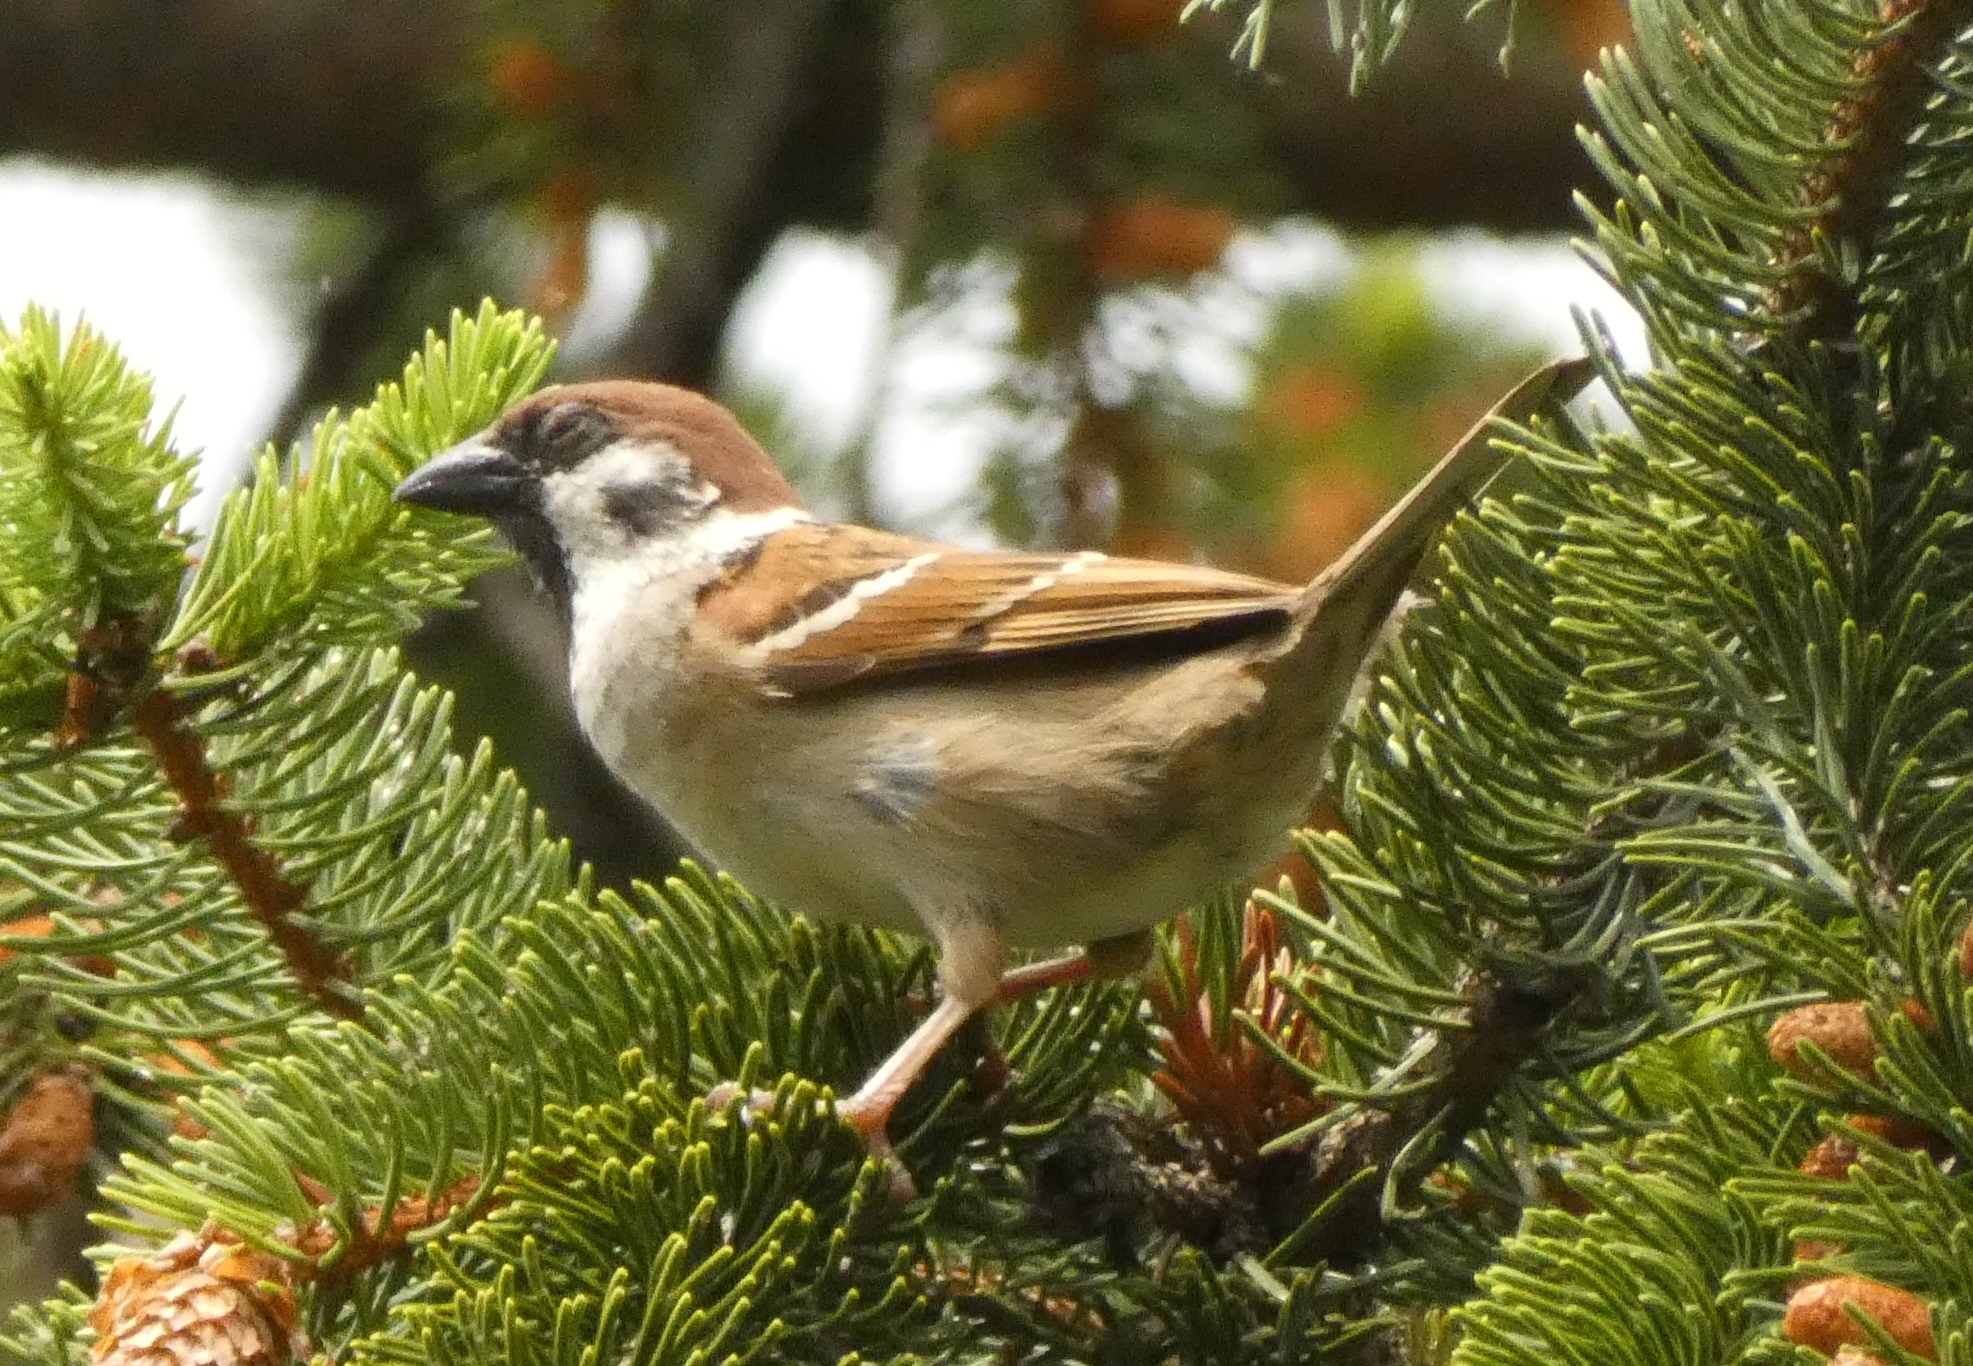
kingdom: Animalia
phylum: Chordata
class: Aves
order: Passeriformes
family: Passeridae
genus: Passer
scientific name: Passer montanus
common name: Eurasian tree sparrow
